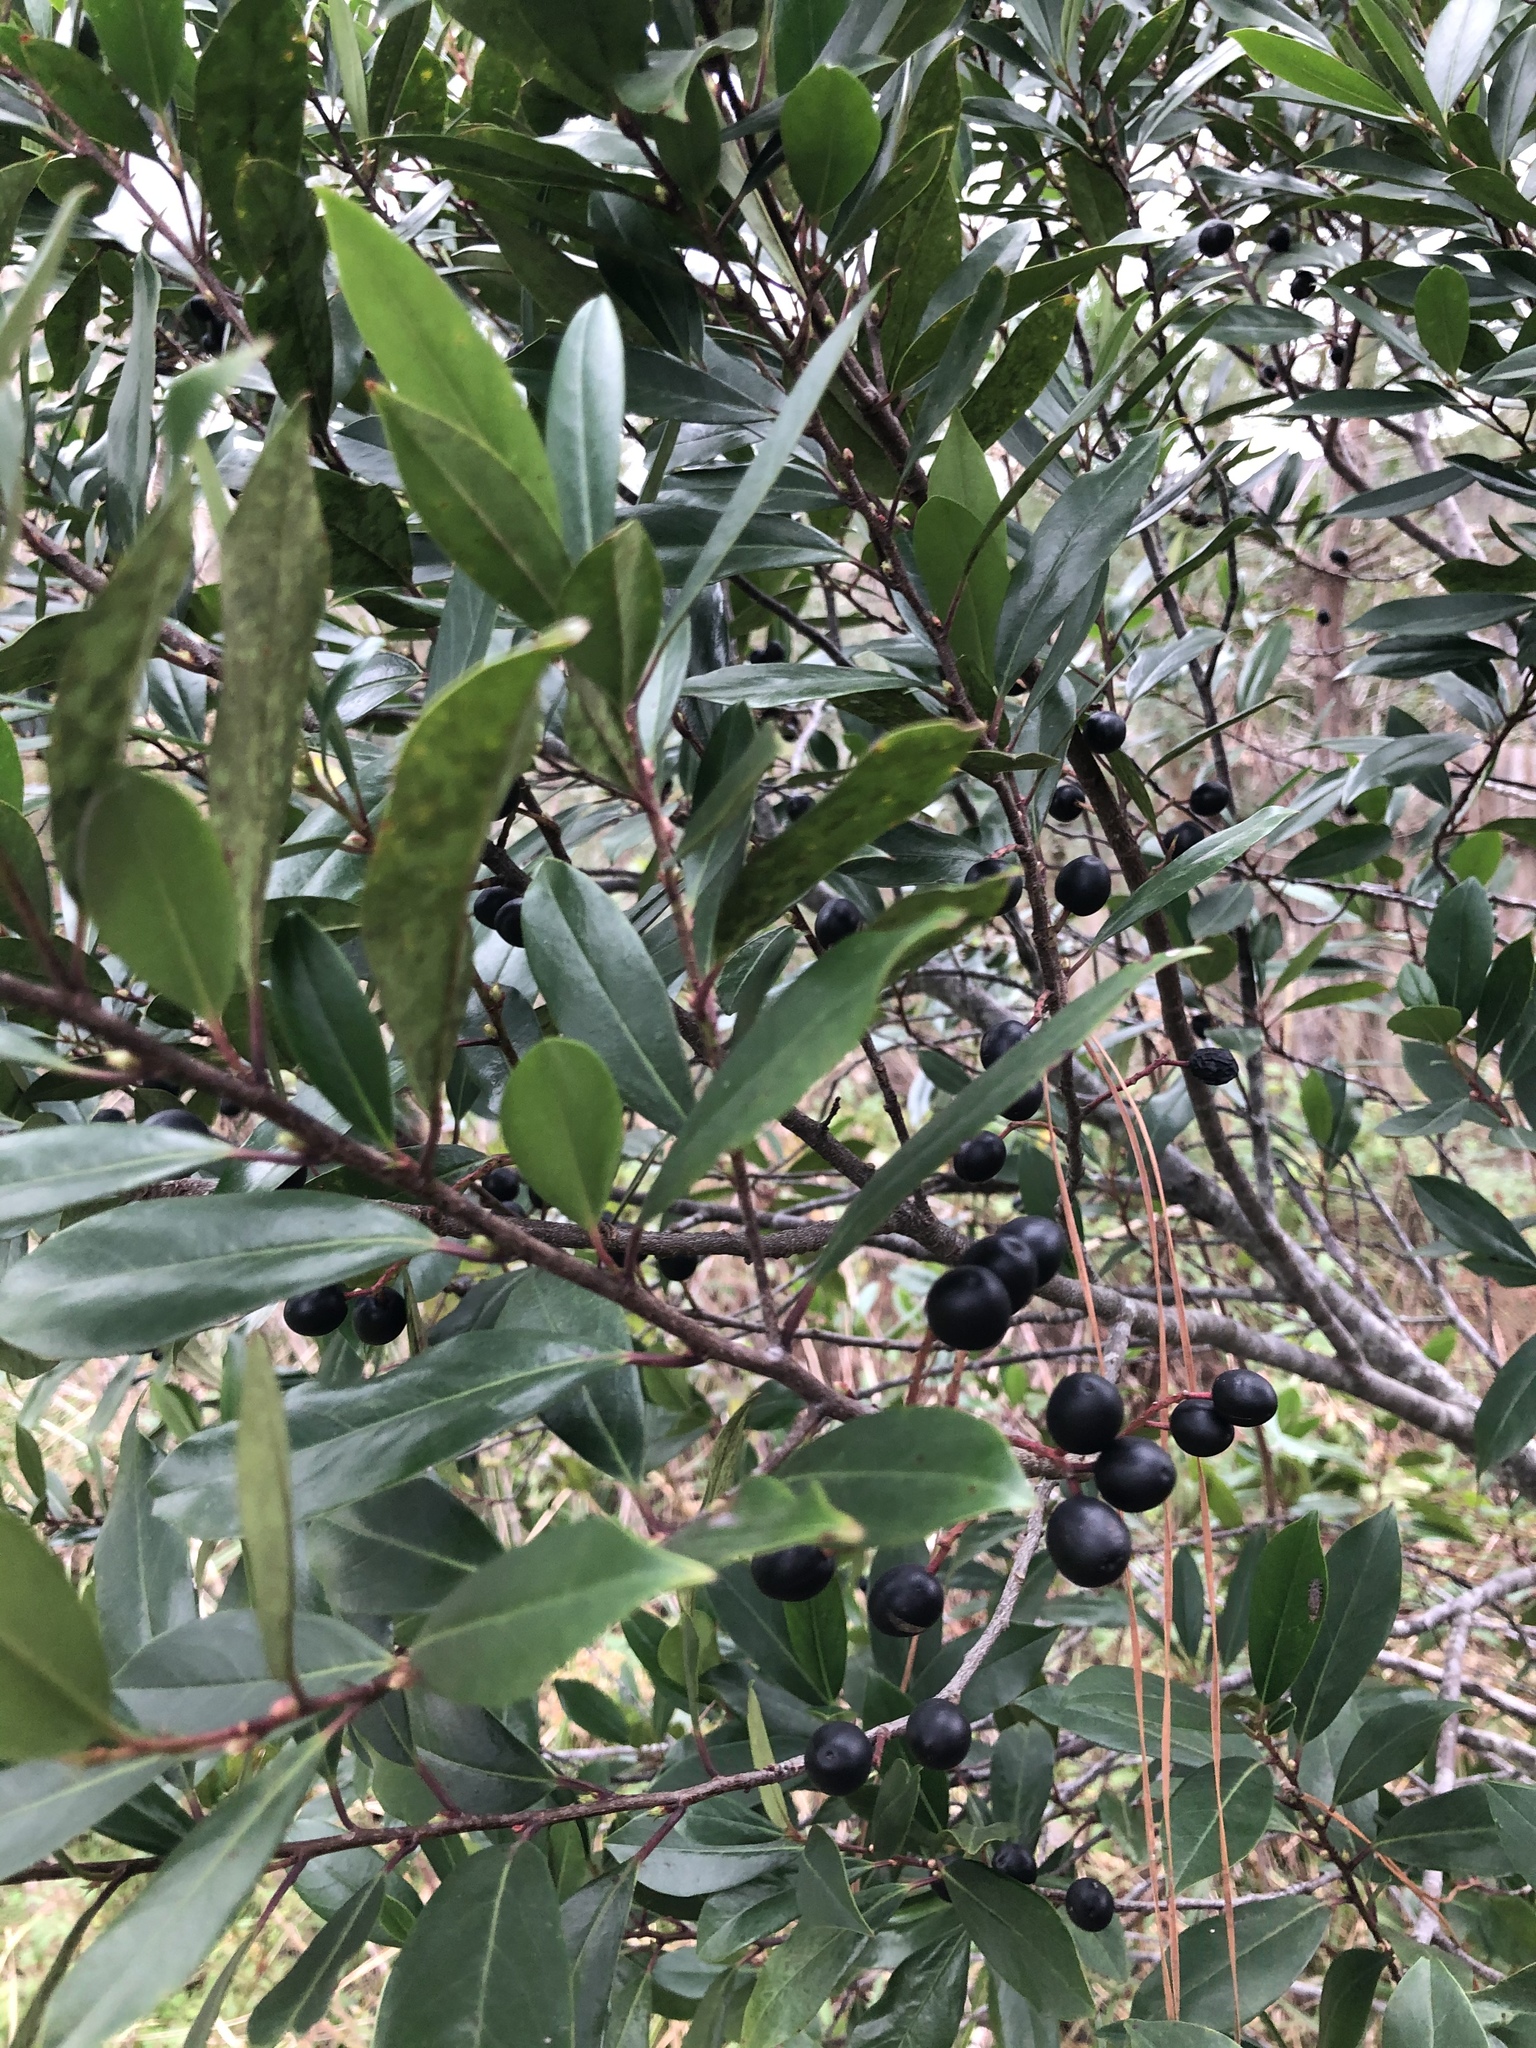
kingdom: Plantae
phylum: Tracheophyta
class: Magnoliopsida
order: Rosales
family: Rosaceae
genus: Prunus
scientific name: Prunus caroliniana
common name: Carolina laurel cherry
